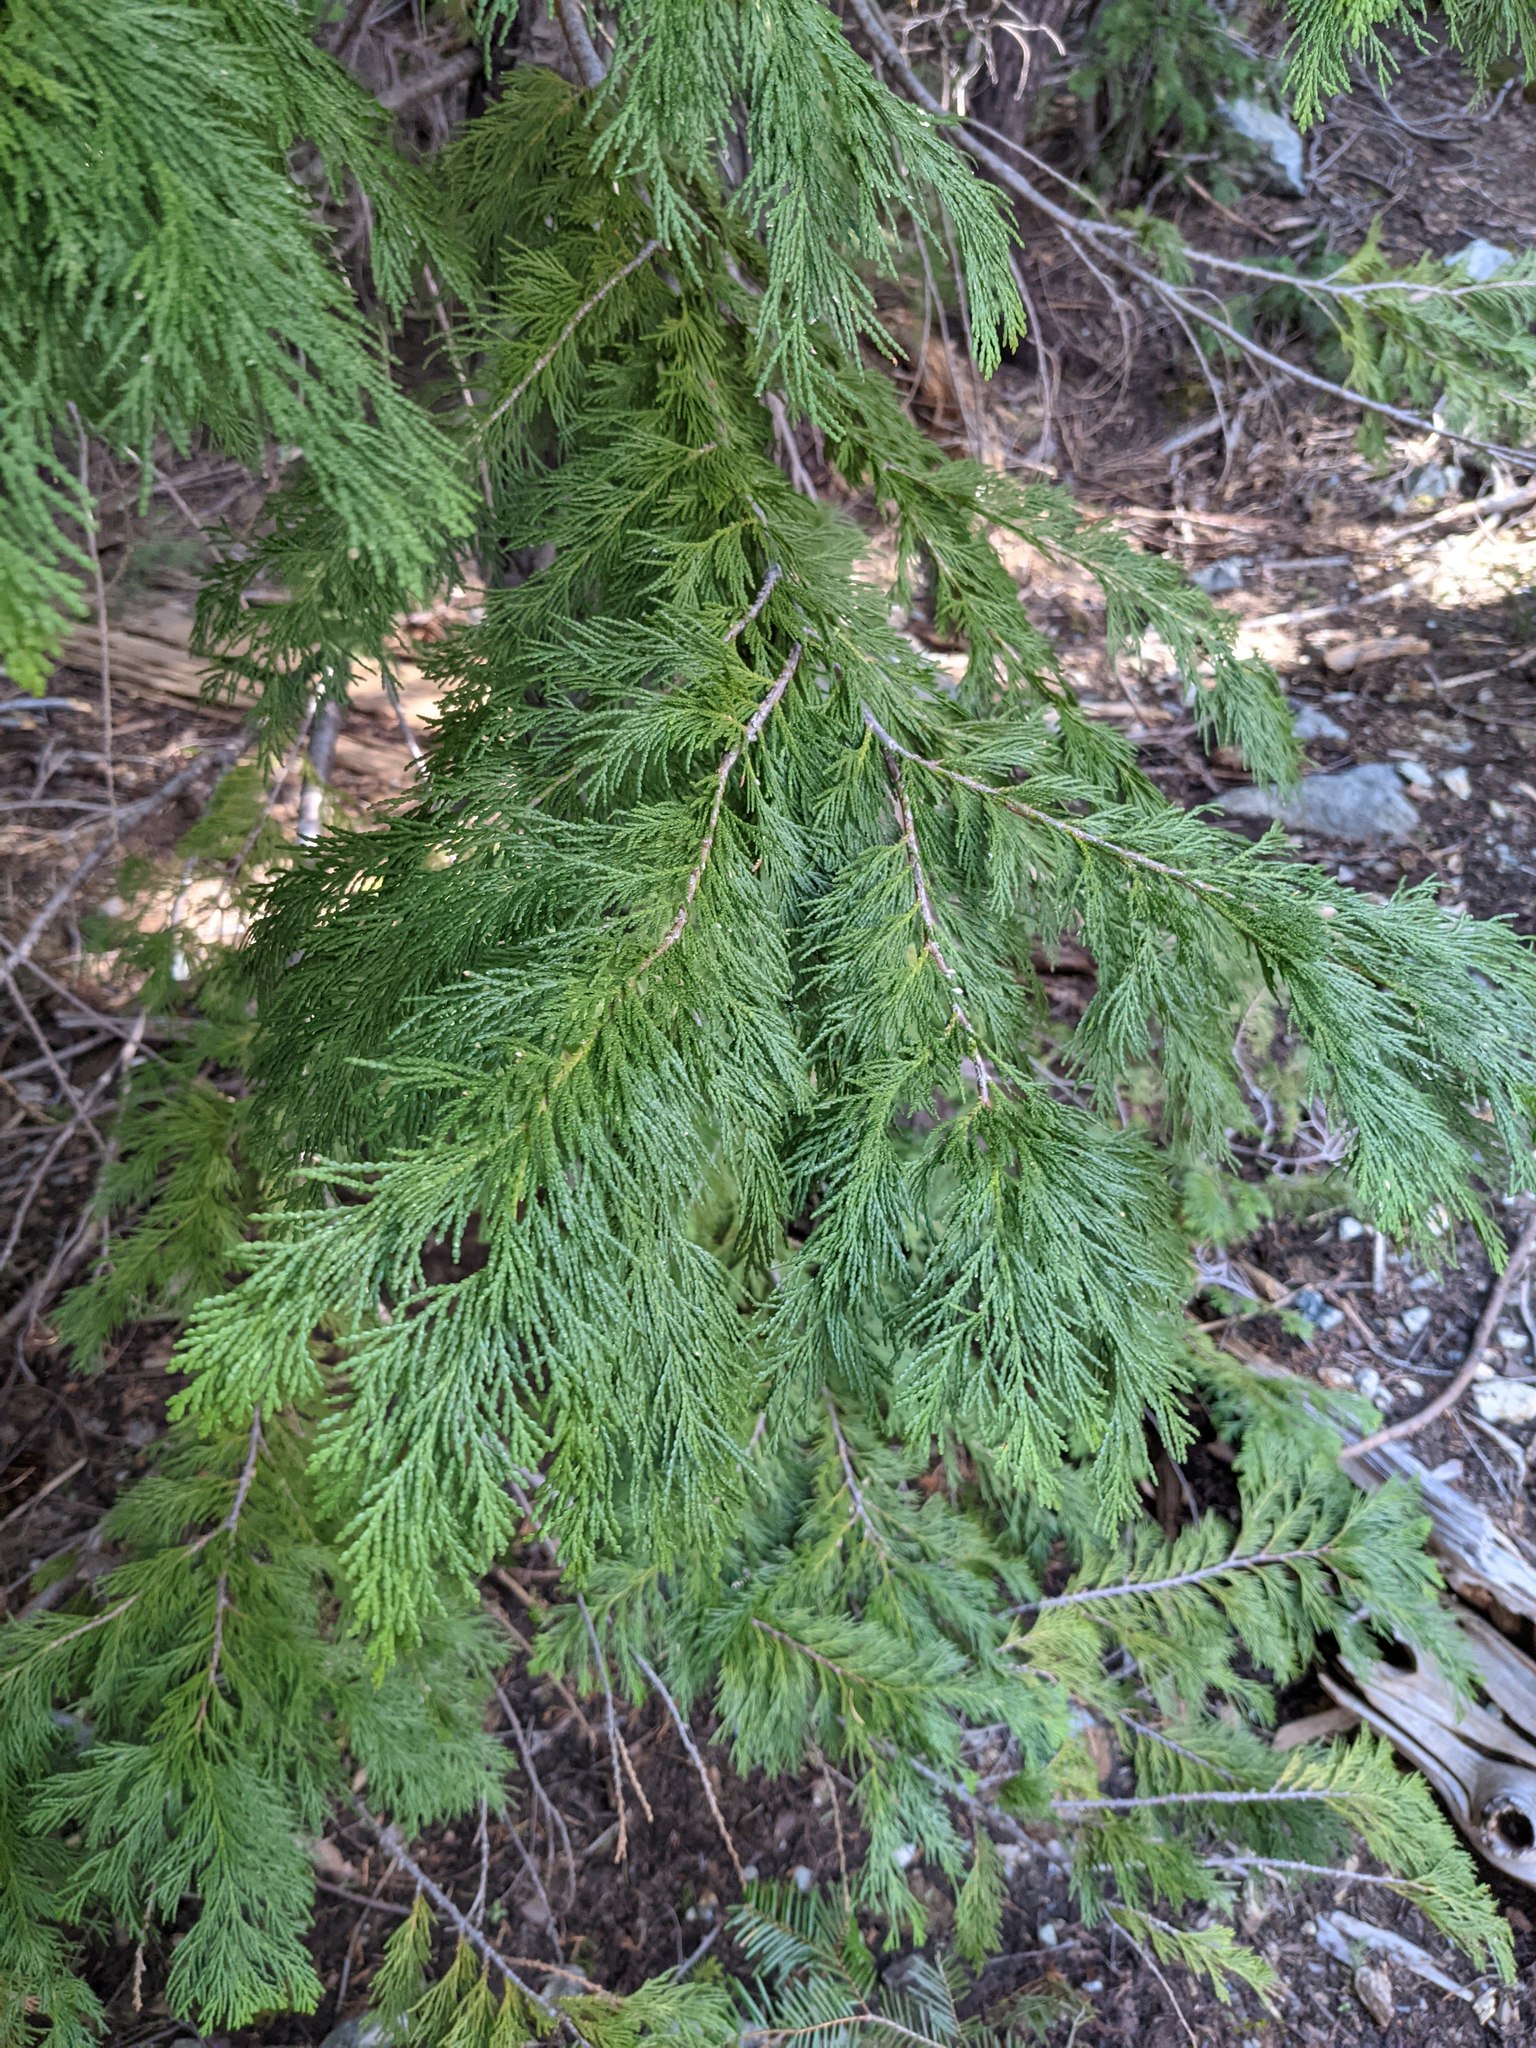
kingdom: Plantae
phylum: Tracheophyta
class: Pinopsida
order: Pinales
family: Cupressaceae
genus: Chamaecyparis
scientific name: Chamaecyparis lawsoniana
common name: Lawson's cypress
